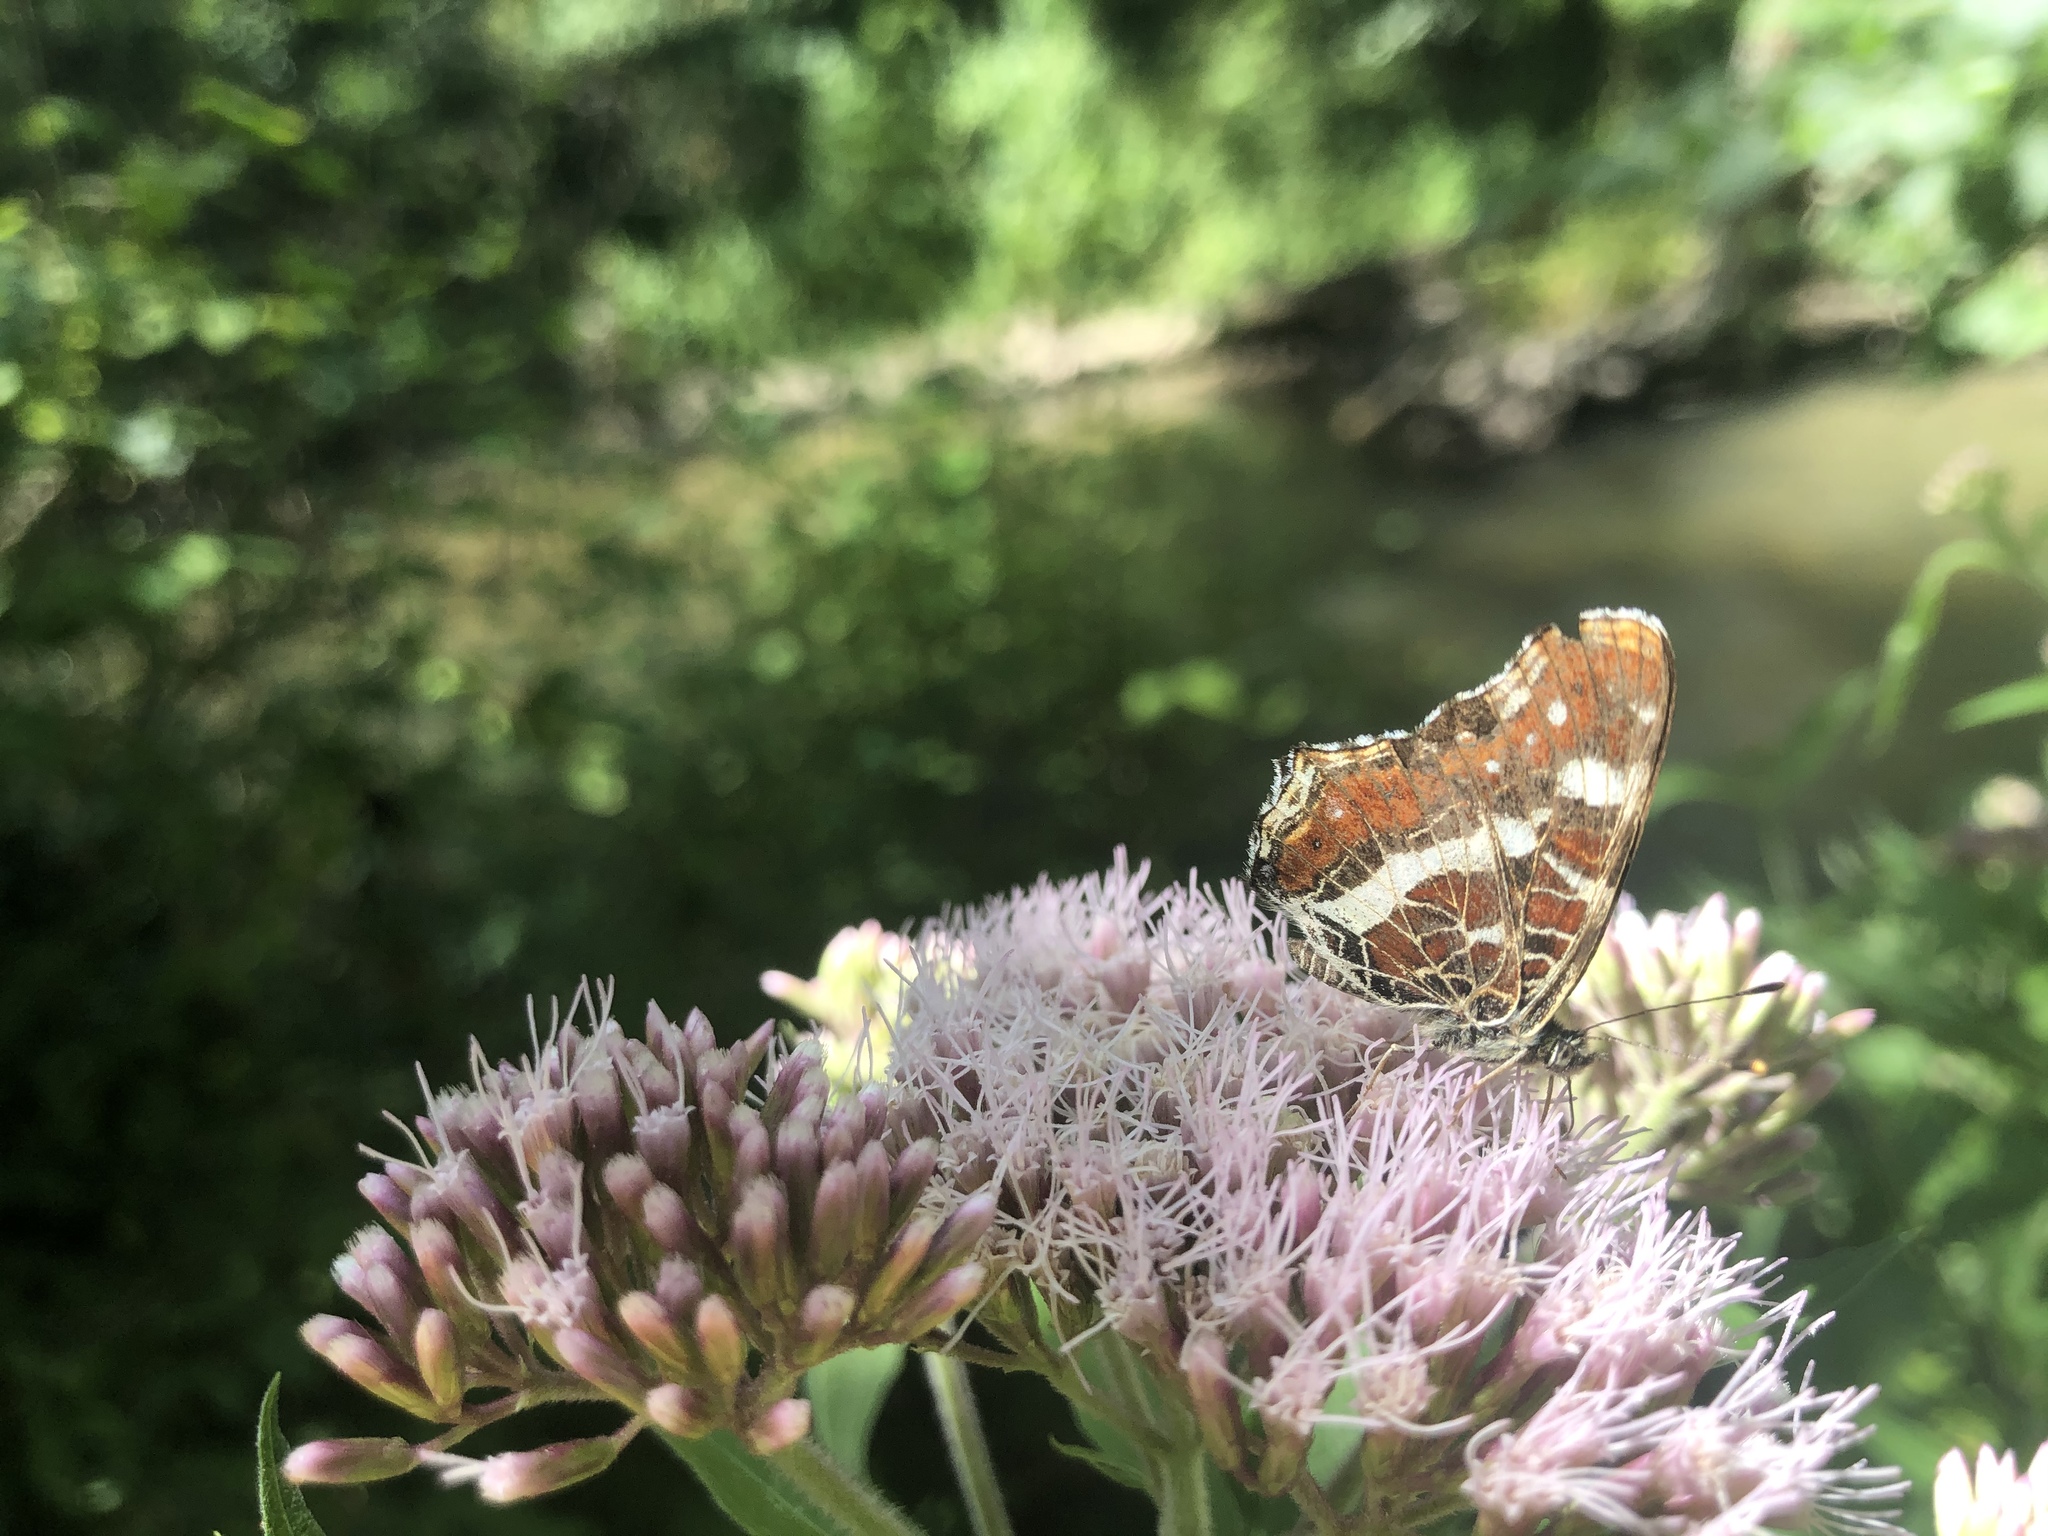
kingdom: Animalia
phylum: Arthropoda
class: Insecta
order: Lepidoptera
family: Nymphalidae
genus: Araschnia
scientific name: Araschnia levana
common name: Map butterfly
